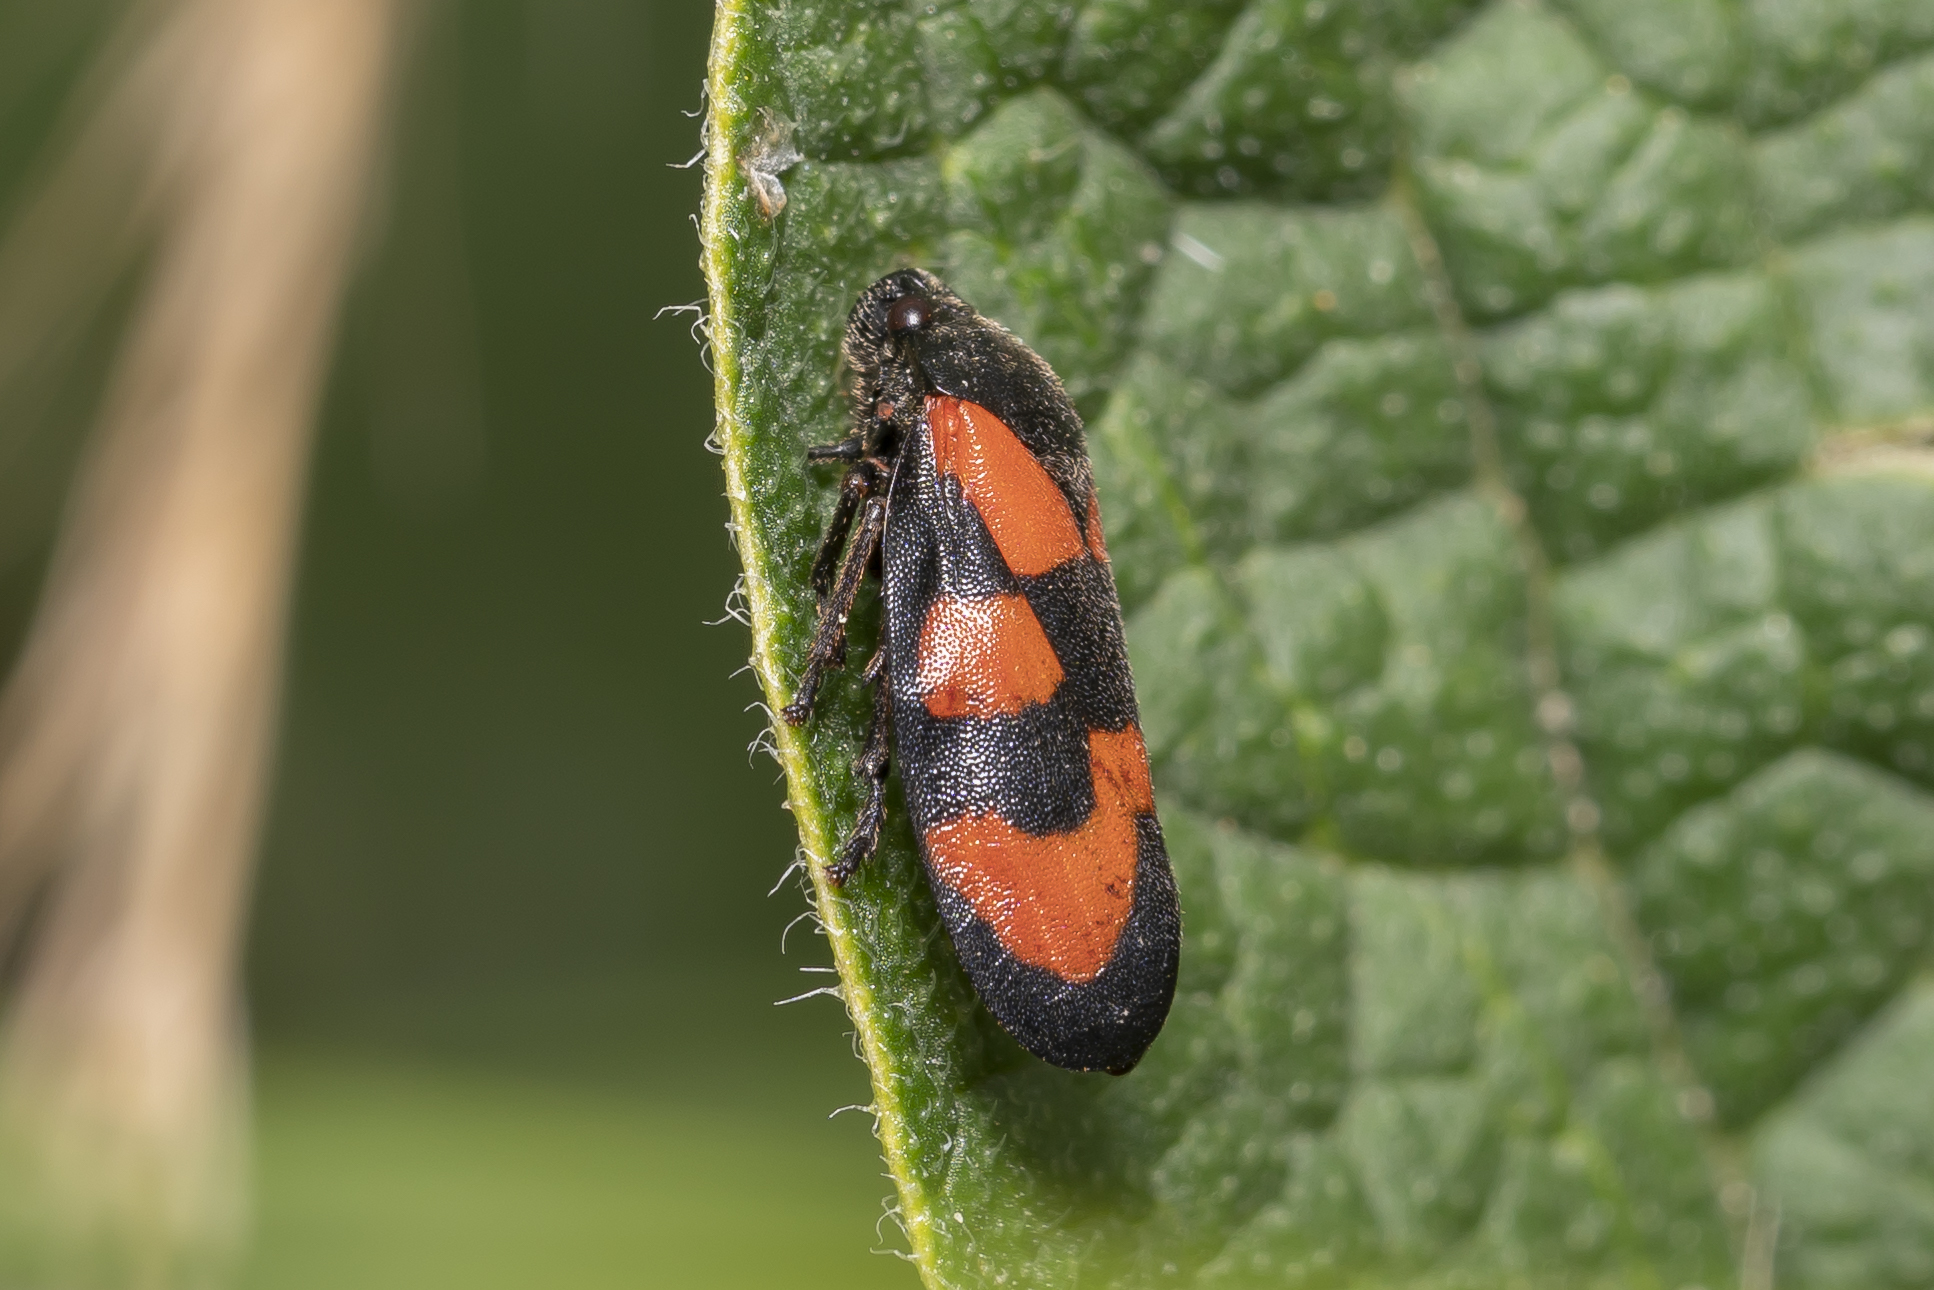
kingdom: Animalia
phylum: Arthropoda
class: Insecta
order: Hemiptera
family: Cercopidae
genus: Cercopis
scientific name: Cercopis vulnerata
